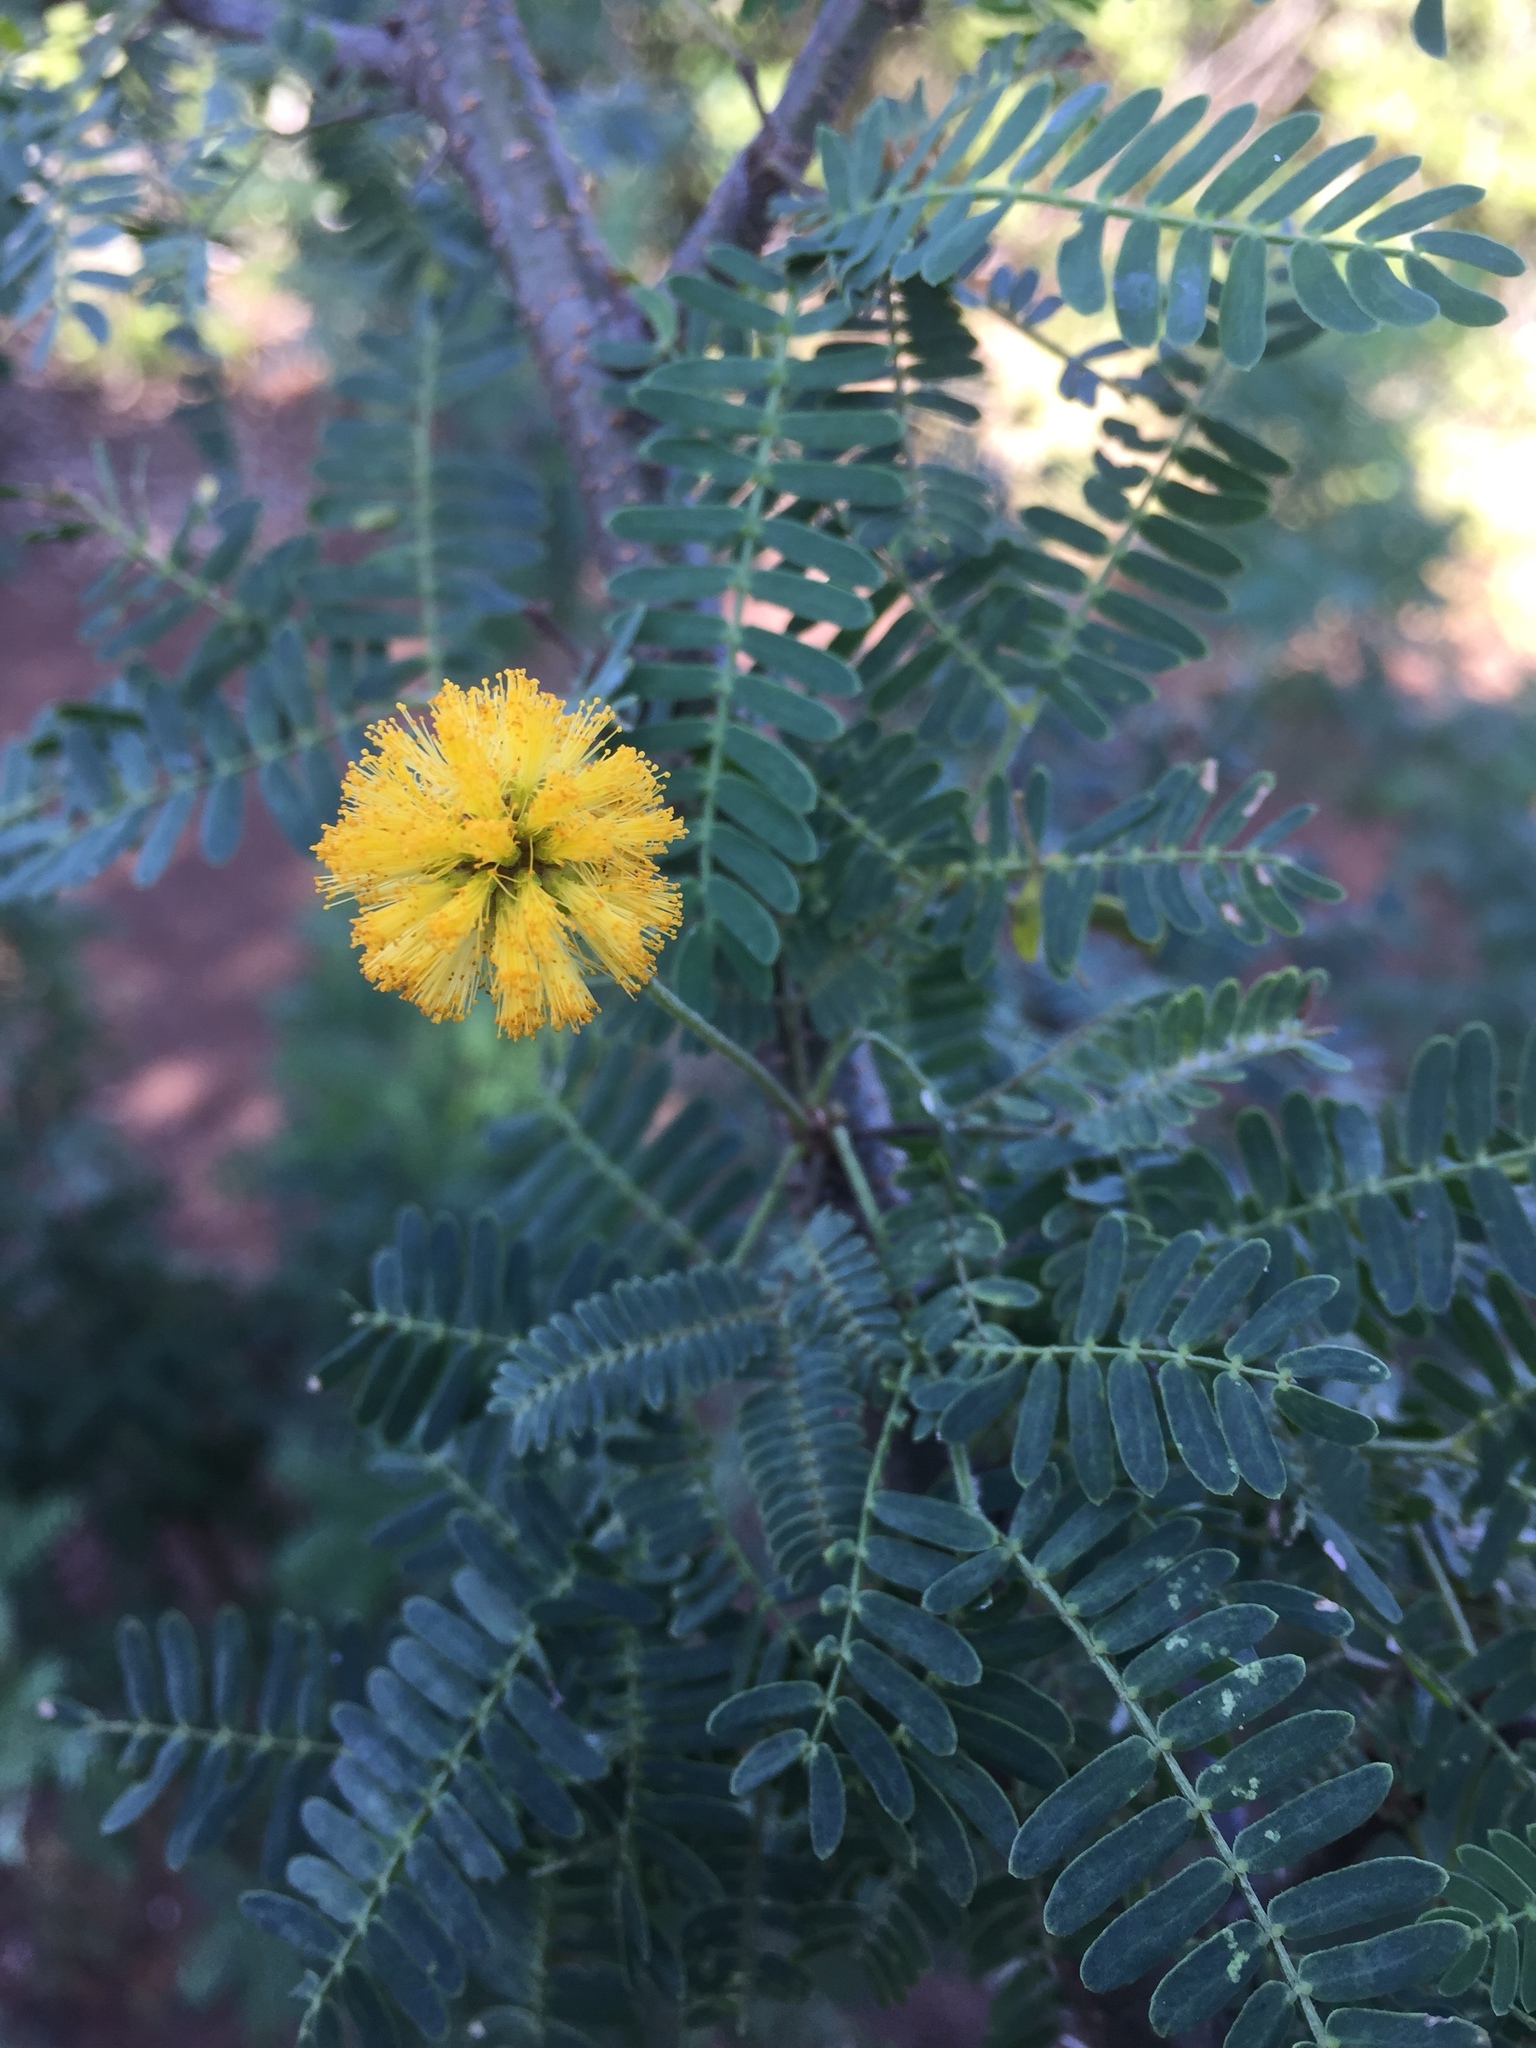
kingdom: Plantae
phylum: Tracheophyta
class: Magnoliopsida
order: Fabales
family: Fabaceae
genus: Vachellia
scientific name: Vachellia farnesiana
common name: Sweet acacia
